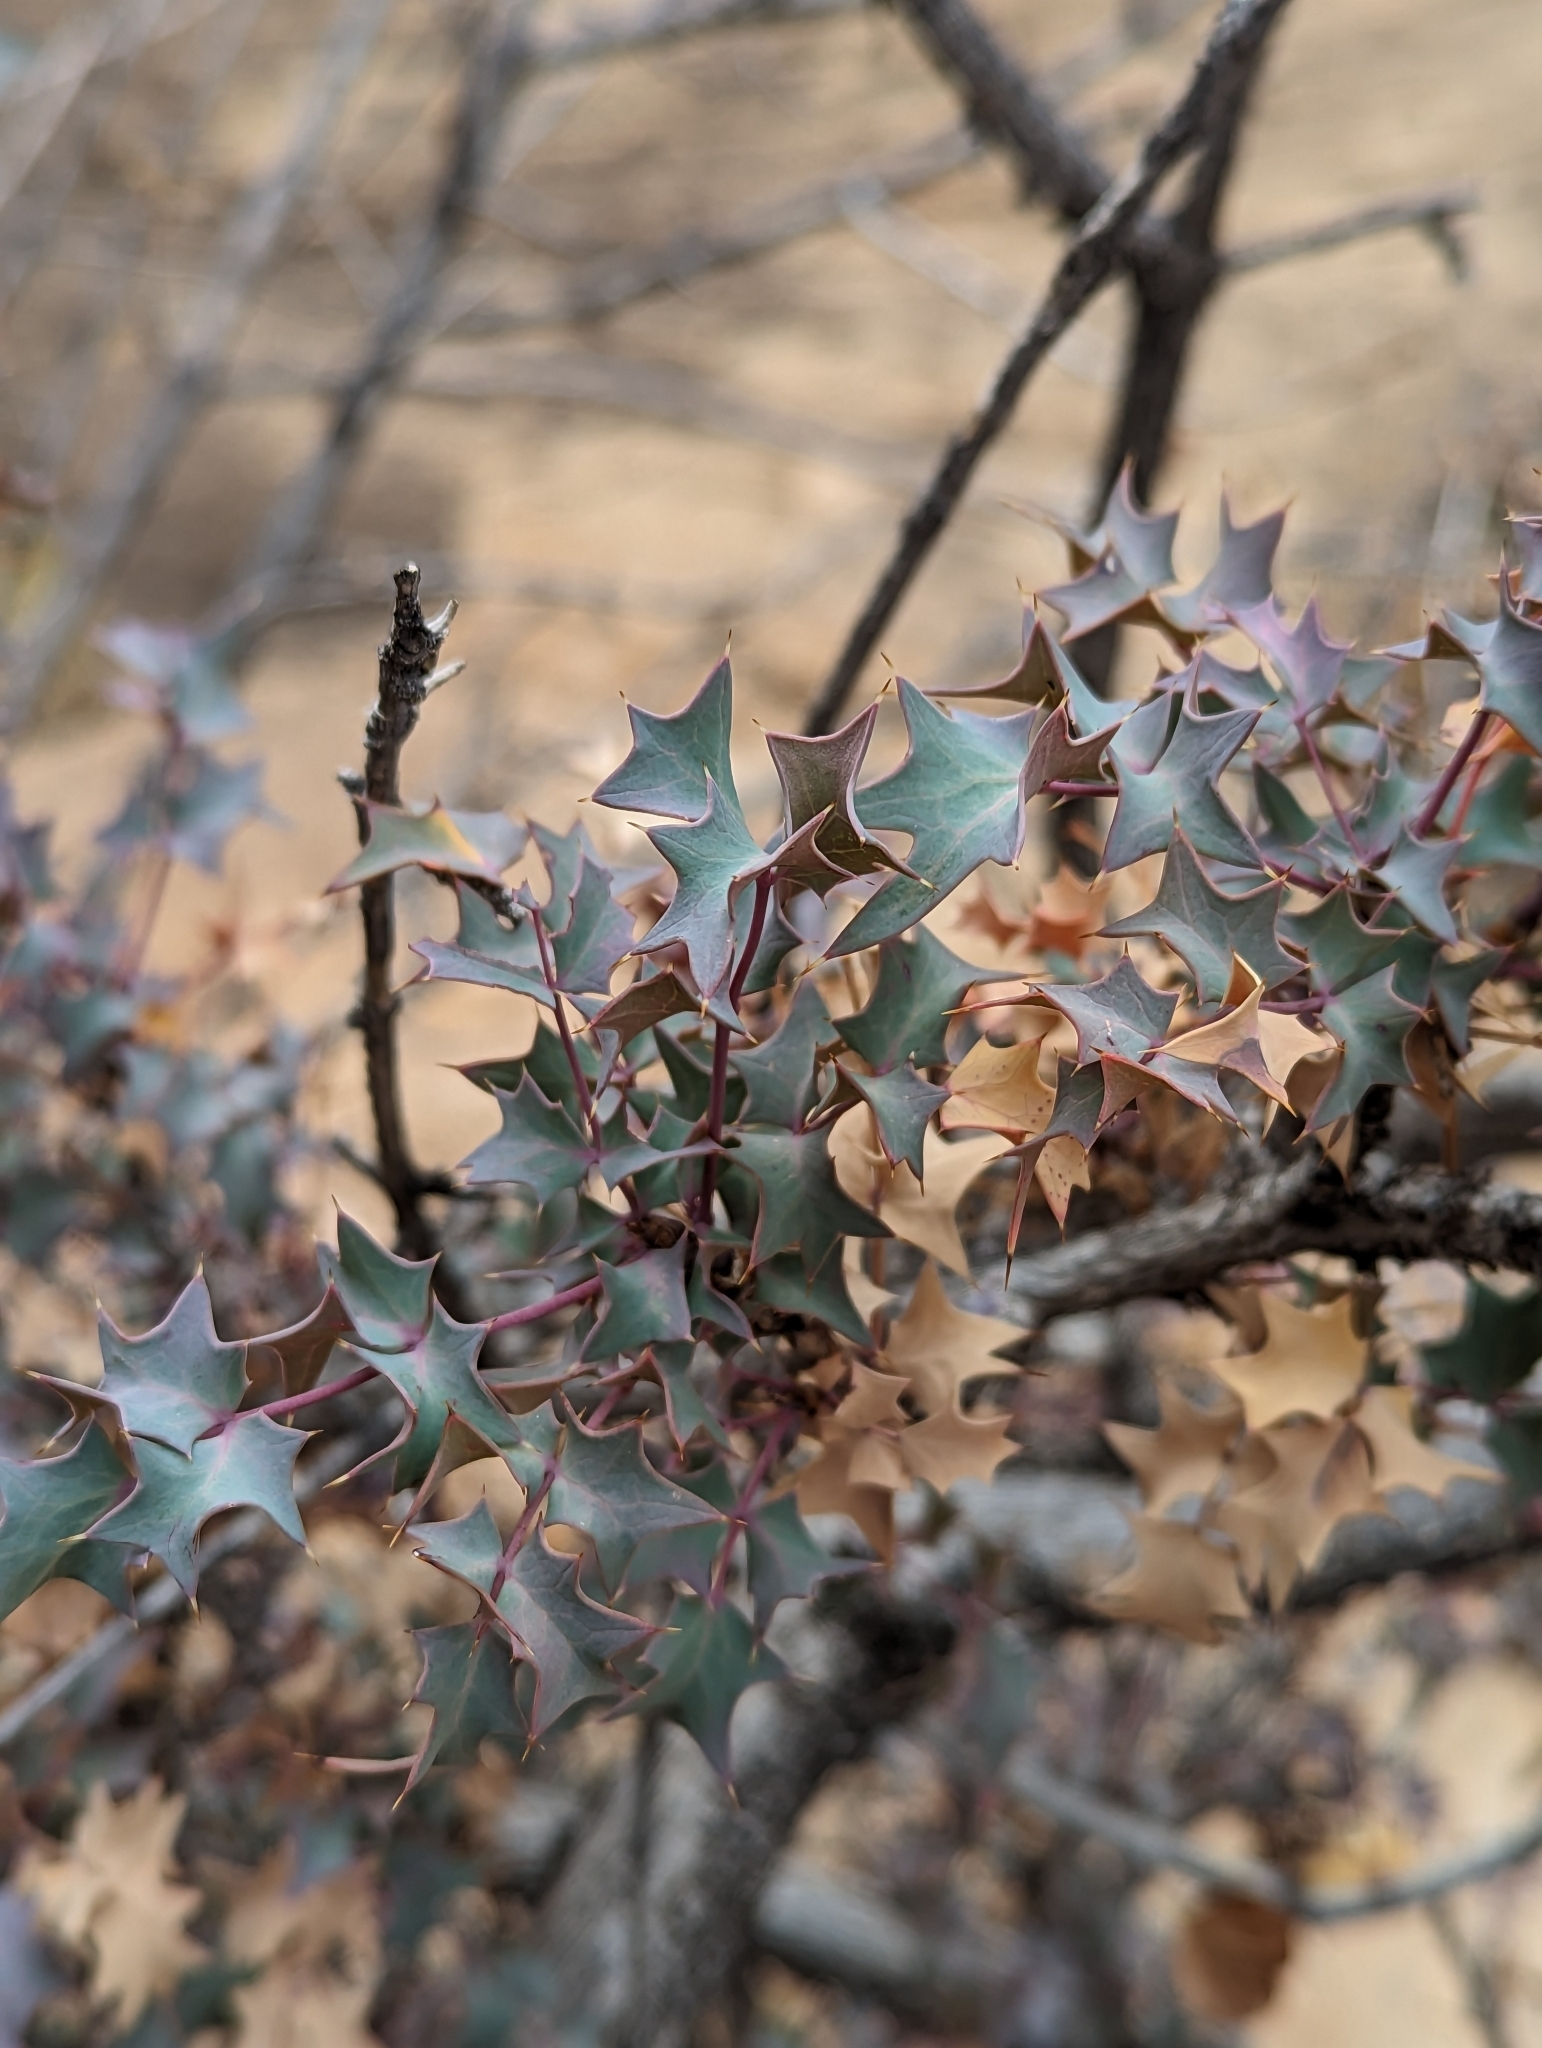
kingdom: Plantae
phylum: Tracheophyta
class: Magnoliopsida
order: Ranunculales
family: Berberidaceae
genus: Alloberberis
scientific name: Alloberberis fremontii
